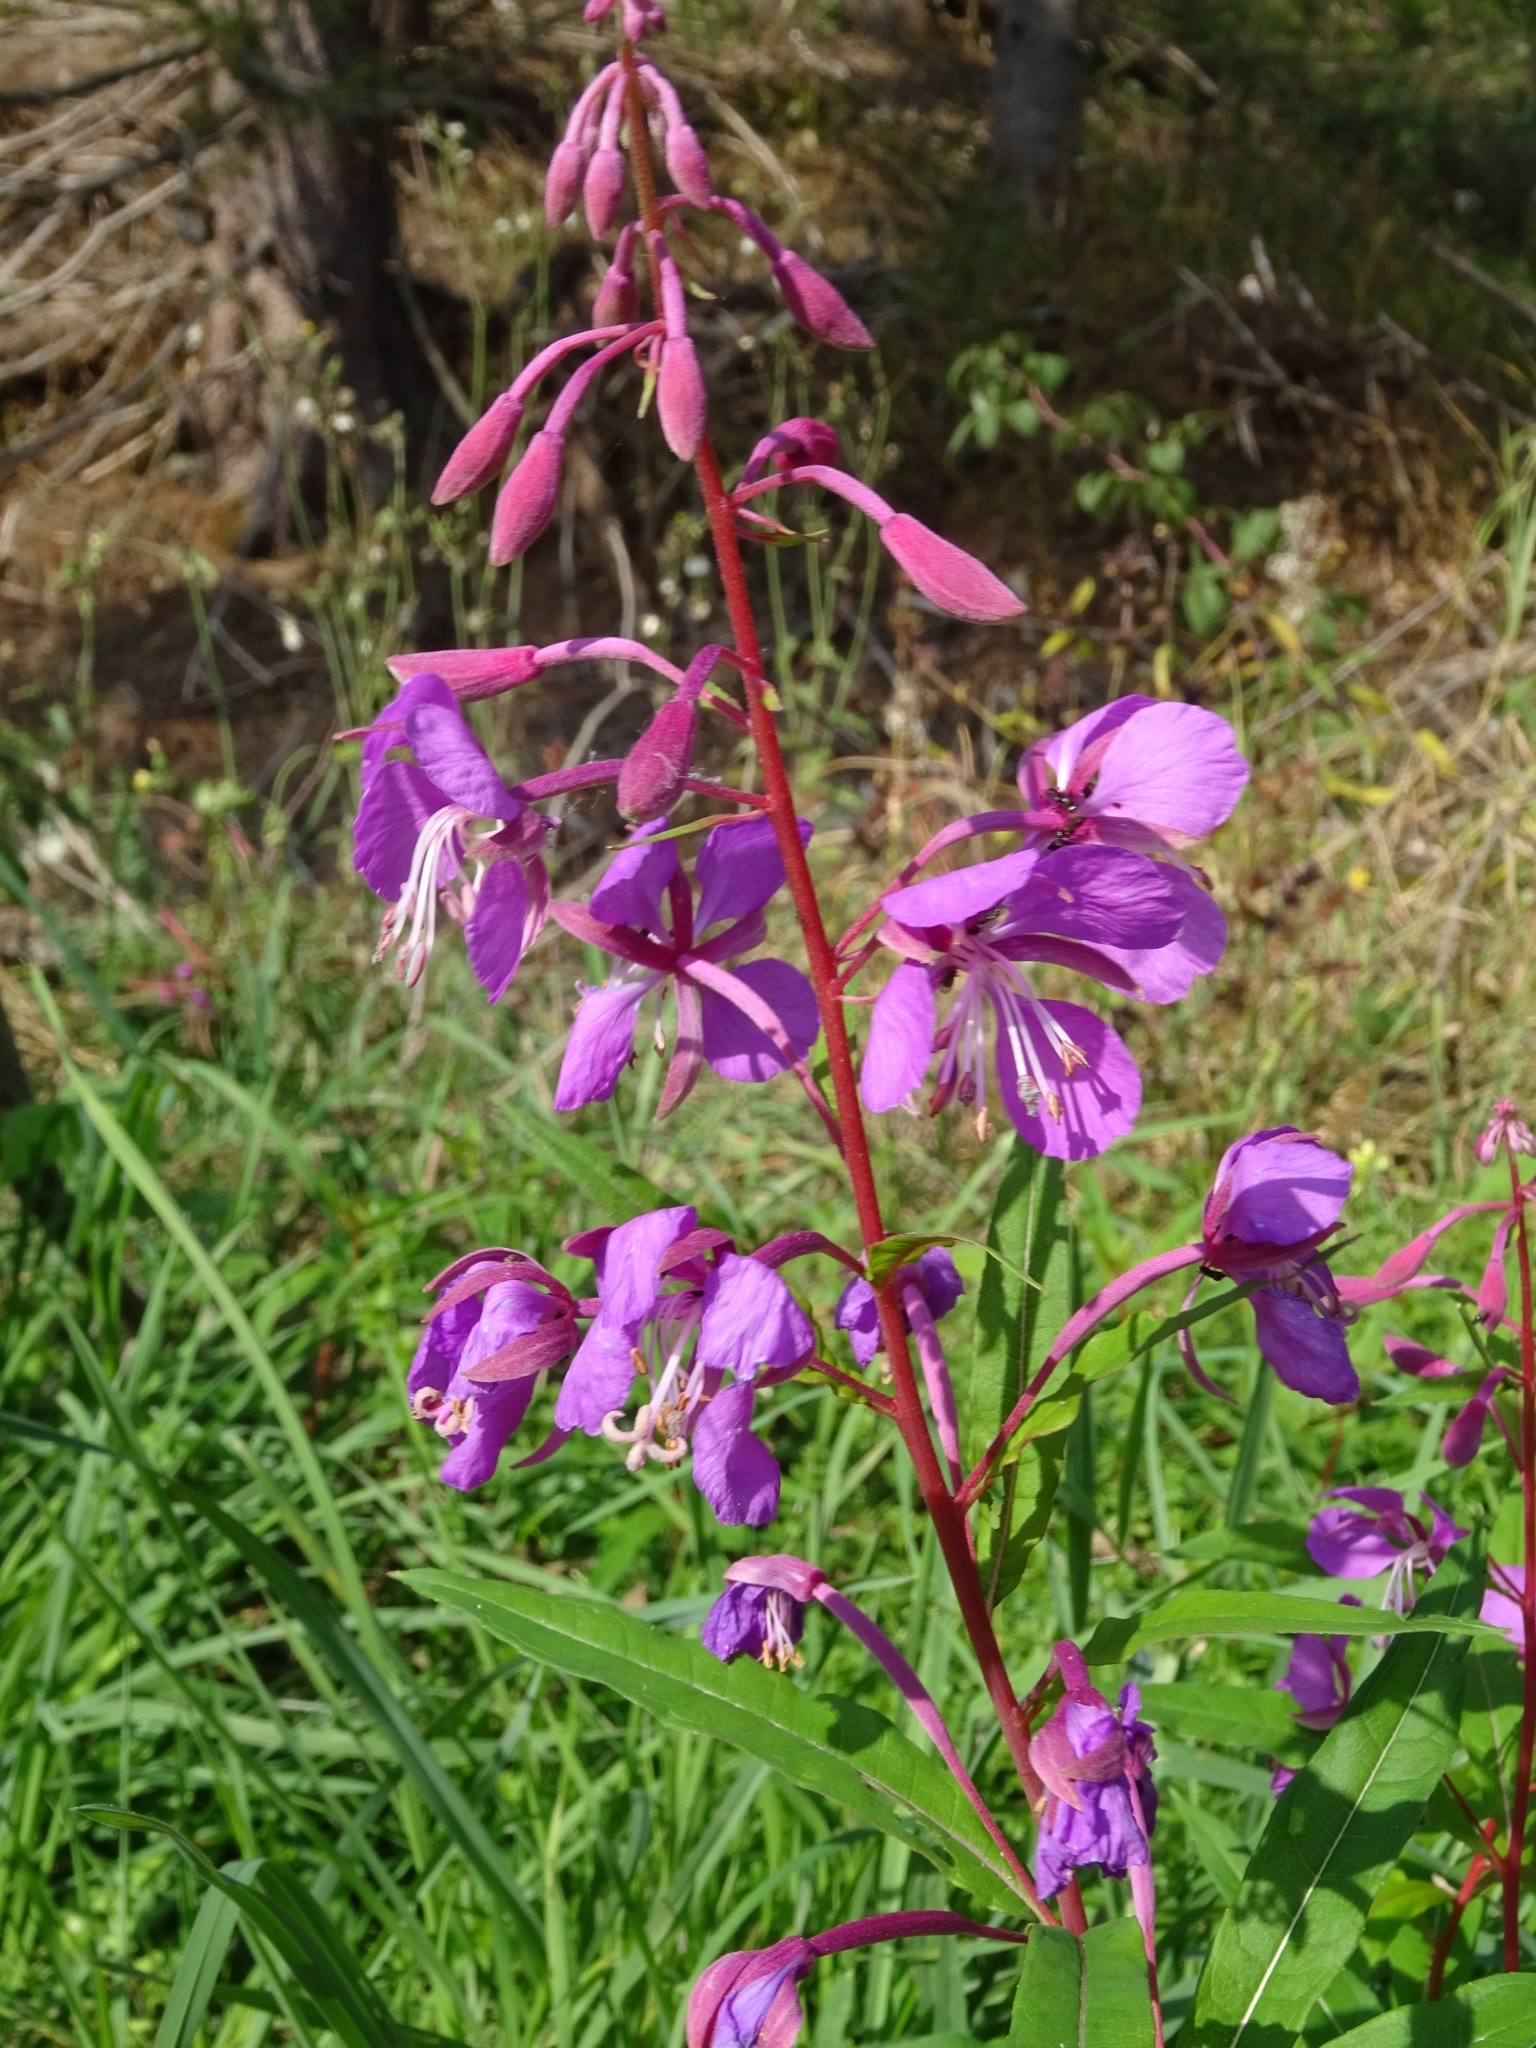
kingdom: Plantae
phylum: Tracheophyta
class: Magnoliopsida
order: Myrtales
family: Onagraceae
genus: Chamaenerion
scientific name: Chamaenerion angustifolium
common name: Fireweed
